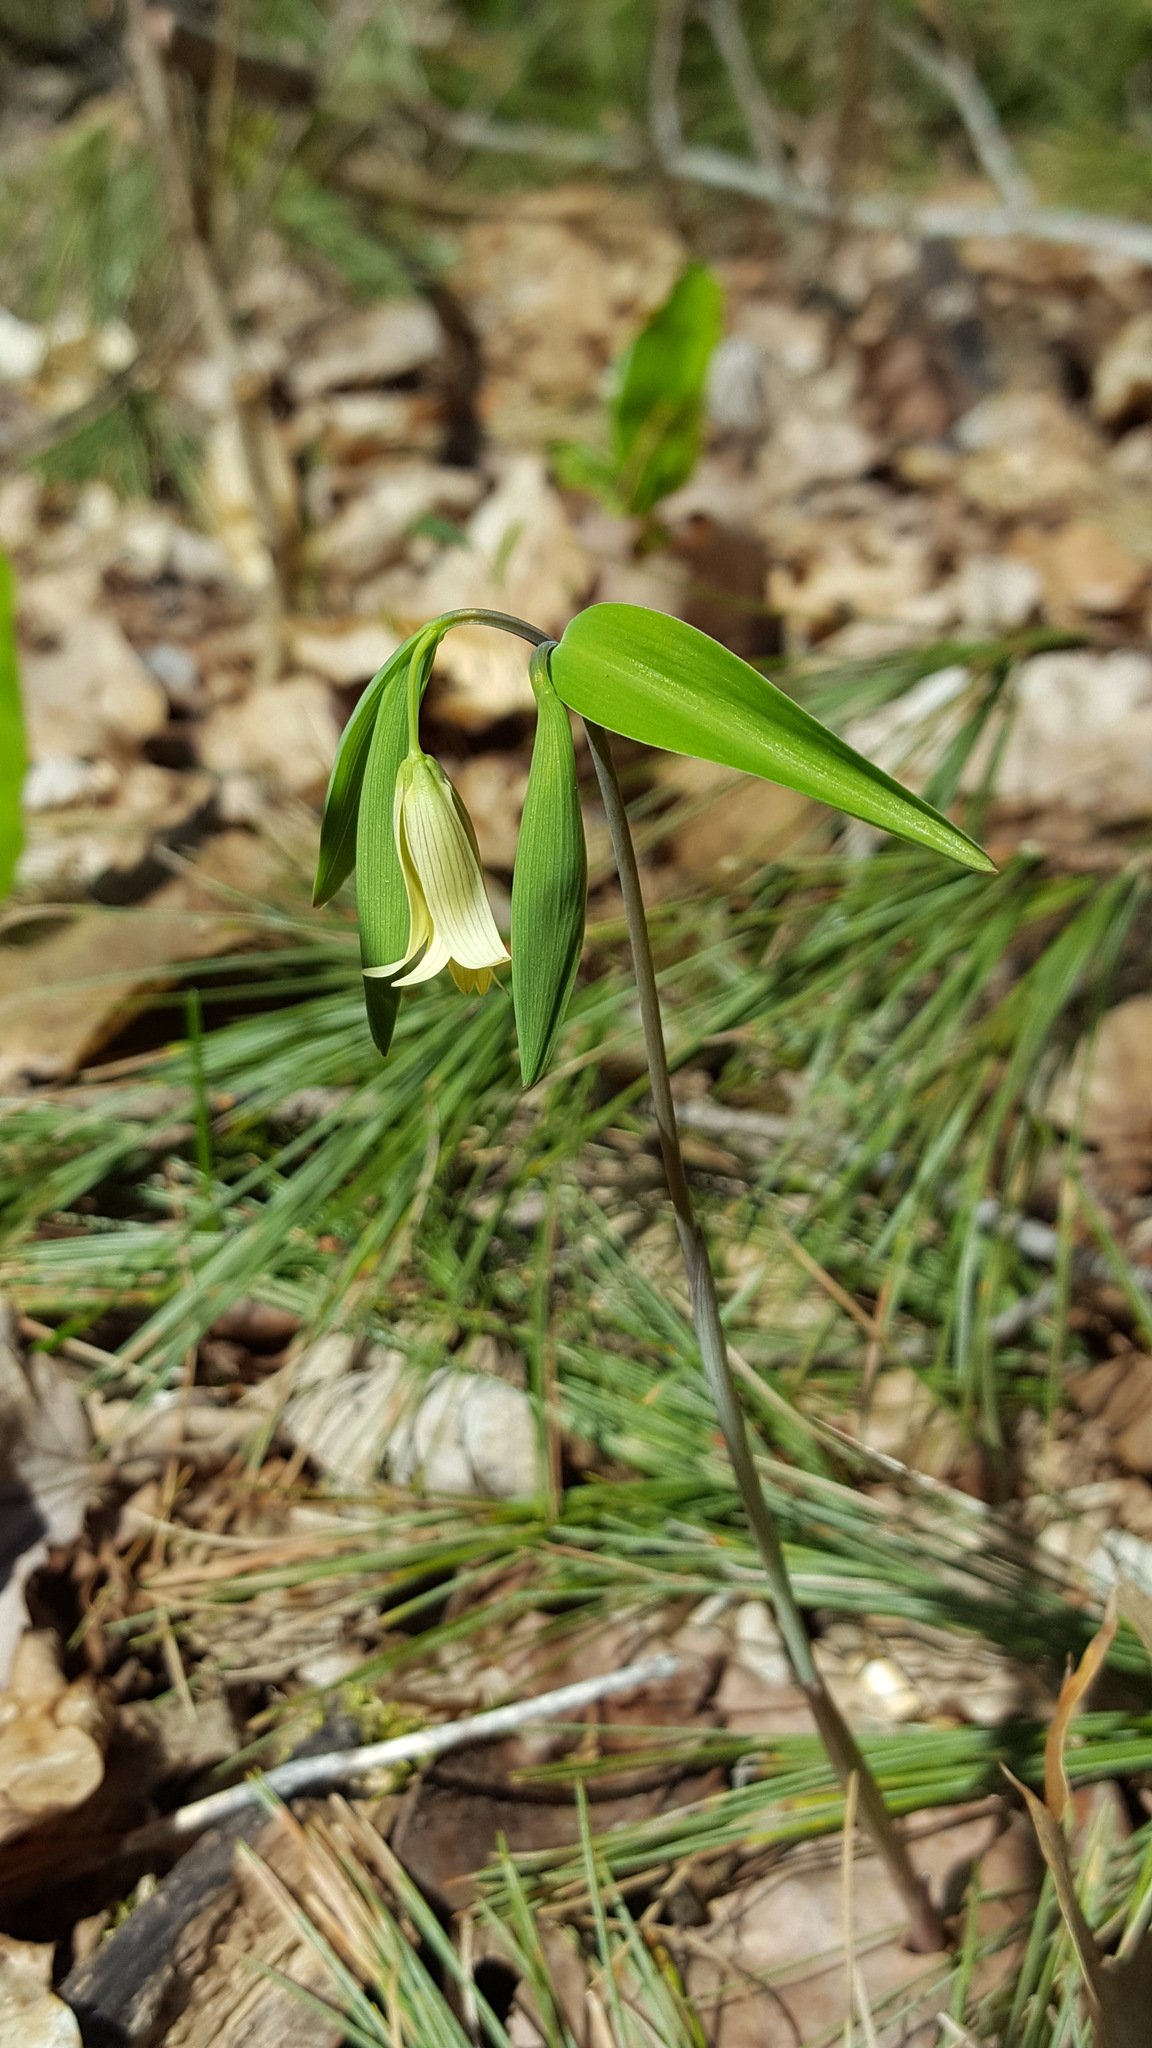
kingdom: Plantae
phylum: Tracheophyta
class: Liliopsida
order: Liliales
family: Colchicaceae
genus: Uvularia
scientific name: Uvularia sessilifolia
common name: Straw-lily
